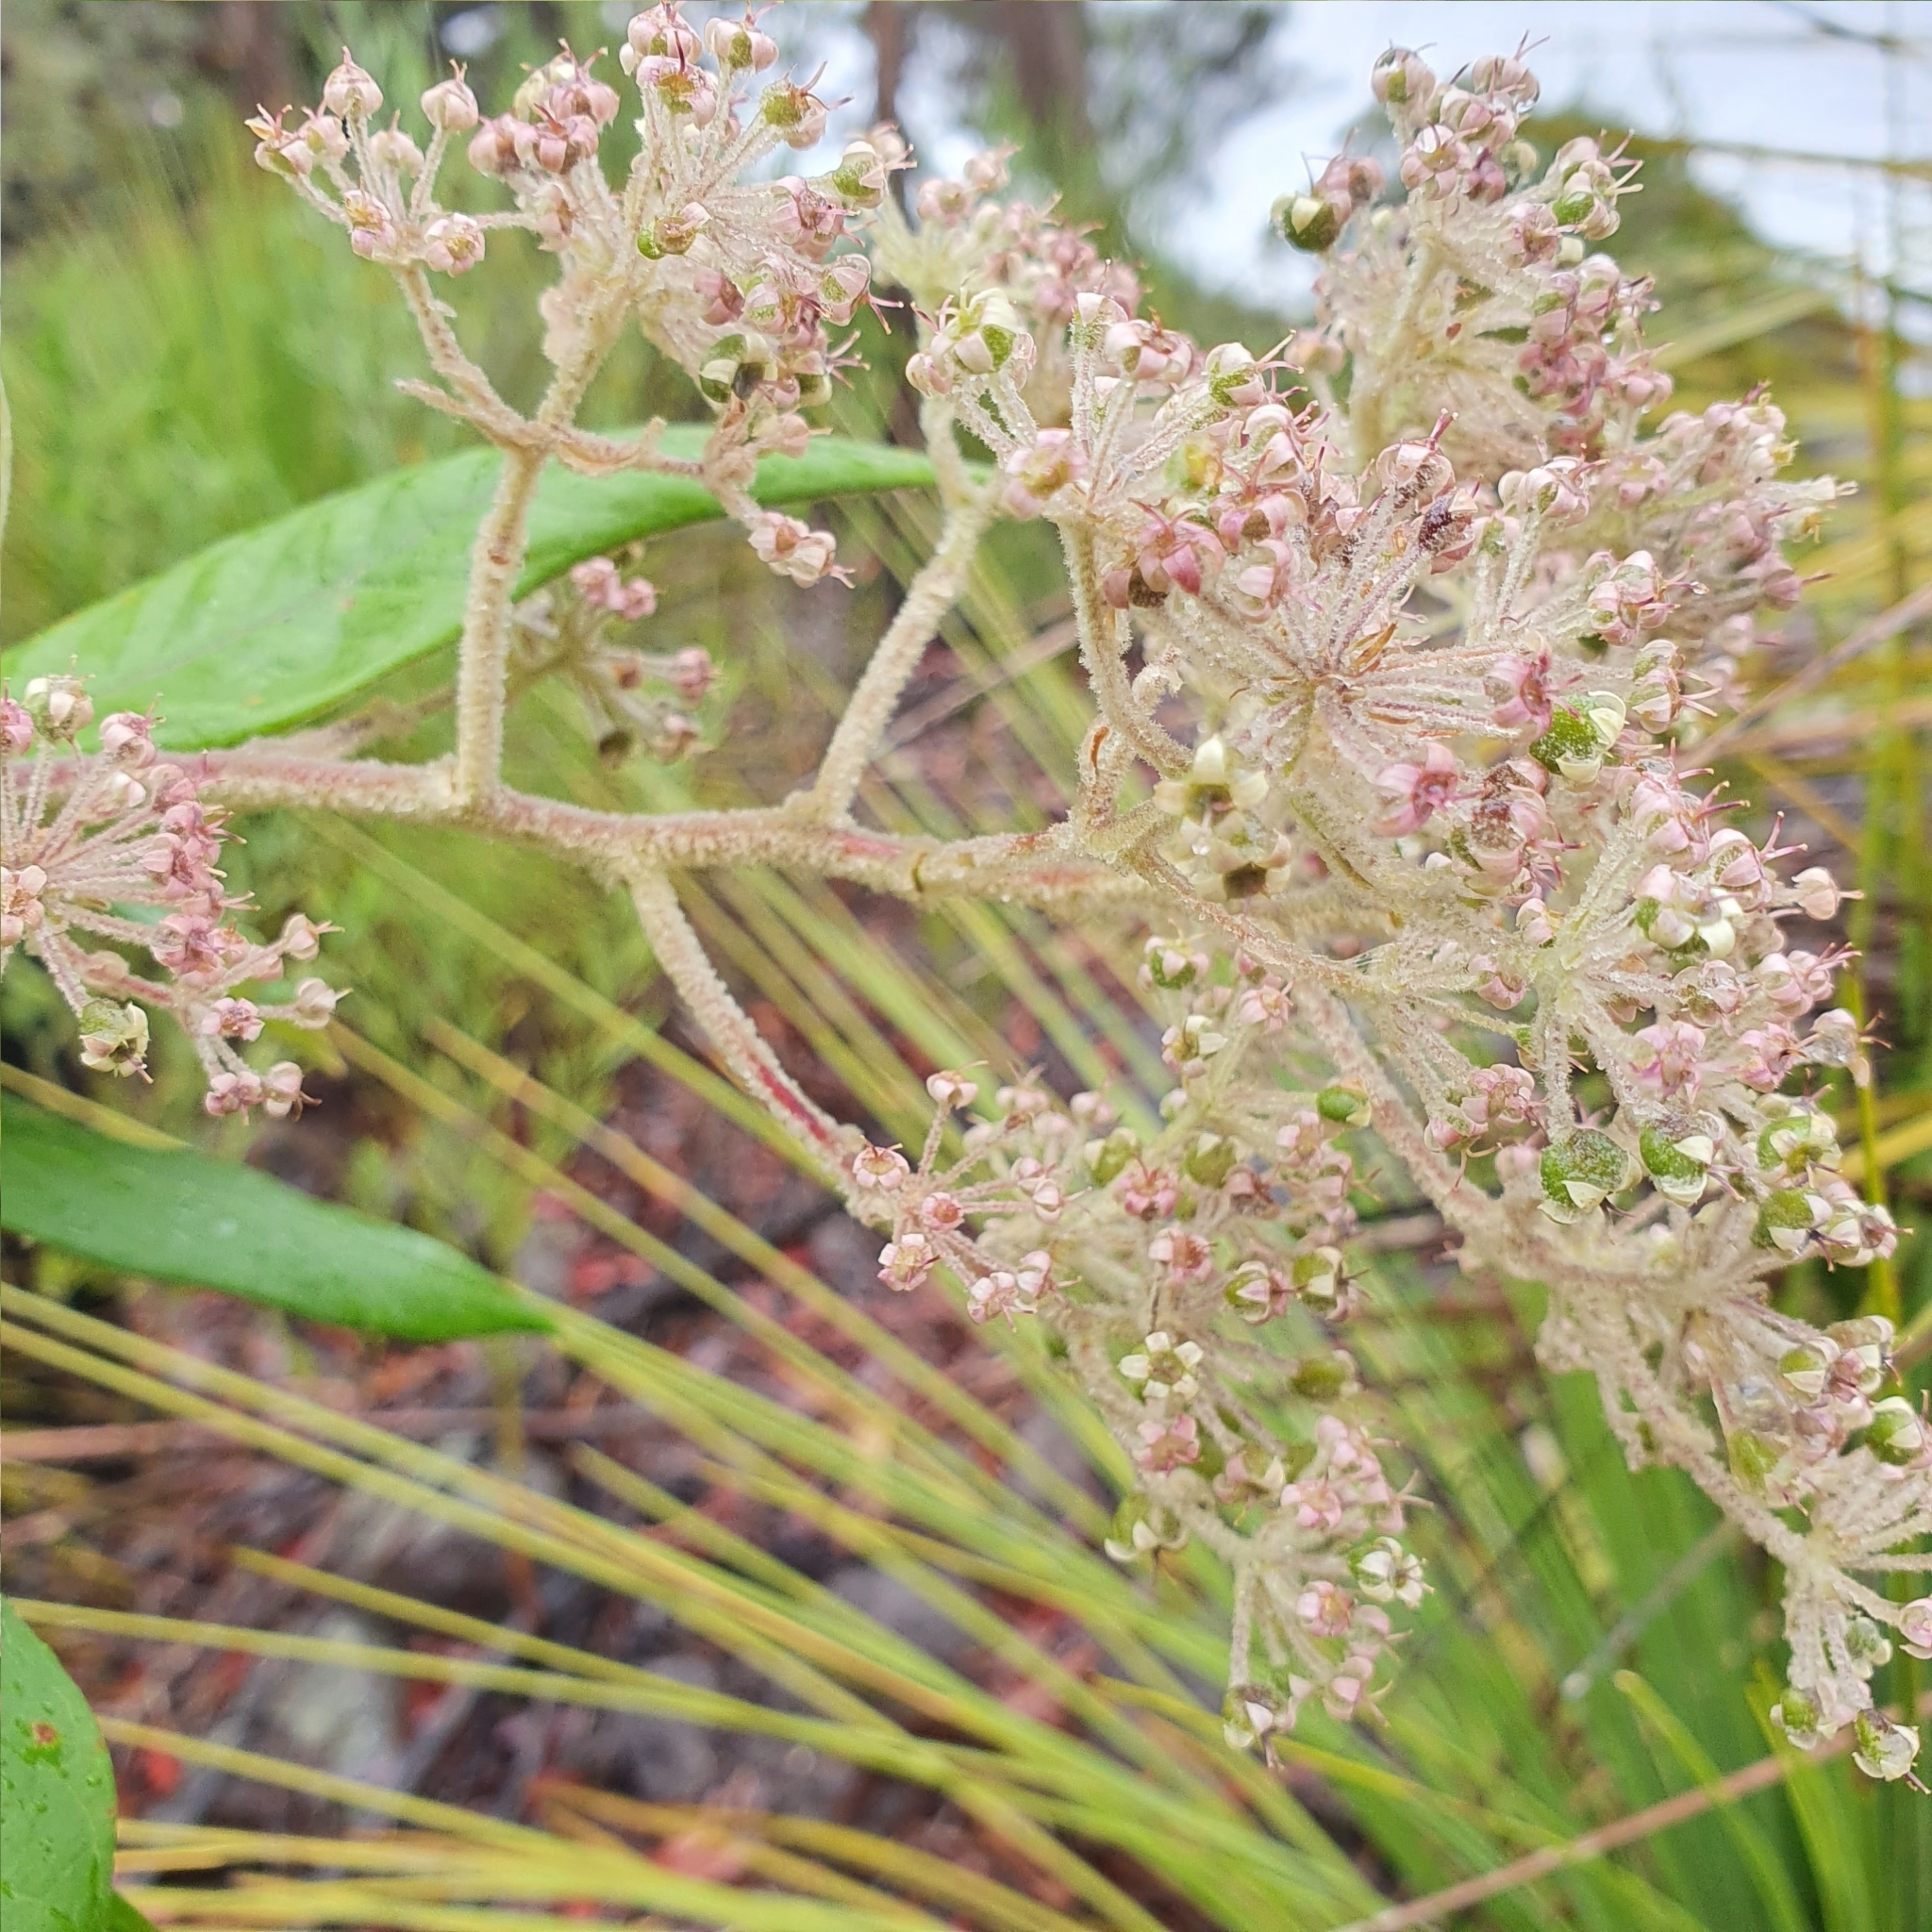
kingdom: Plantae
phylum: Tracheophyta
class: Magnoliopsida
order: Apiales
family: Araliaceae
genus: Astrotricha
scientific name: Astrotricha floccosa
